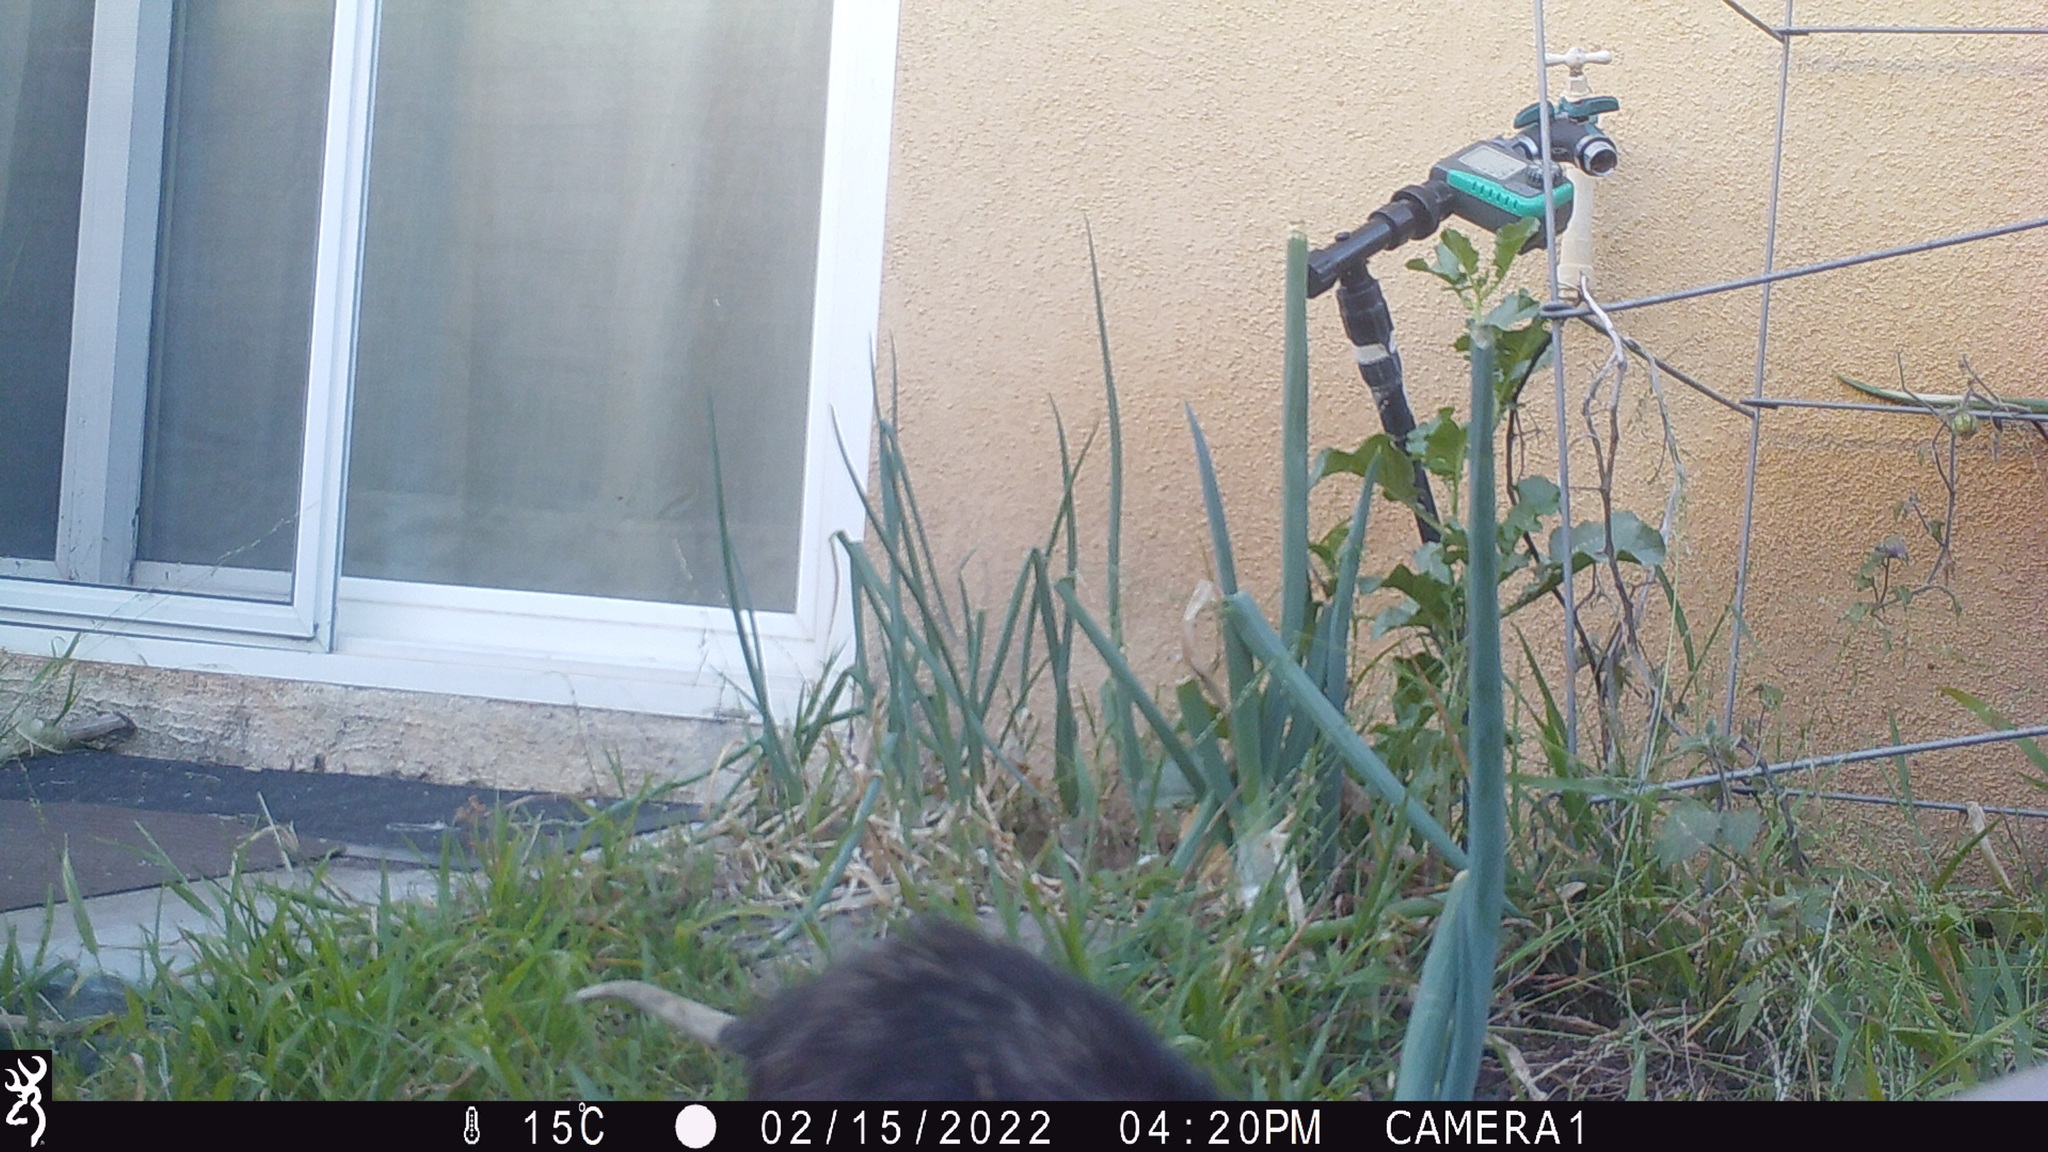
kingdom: Animalia
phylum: Chordata
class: Mammalia
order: Didelphimorphia
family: Didelphidae
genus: Didelphis
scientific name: Didelphis virginiana
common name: Virginia opossum
